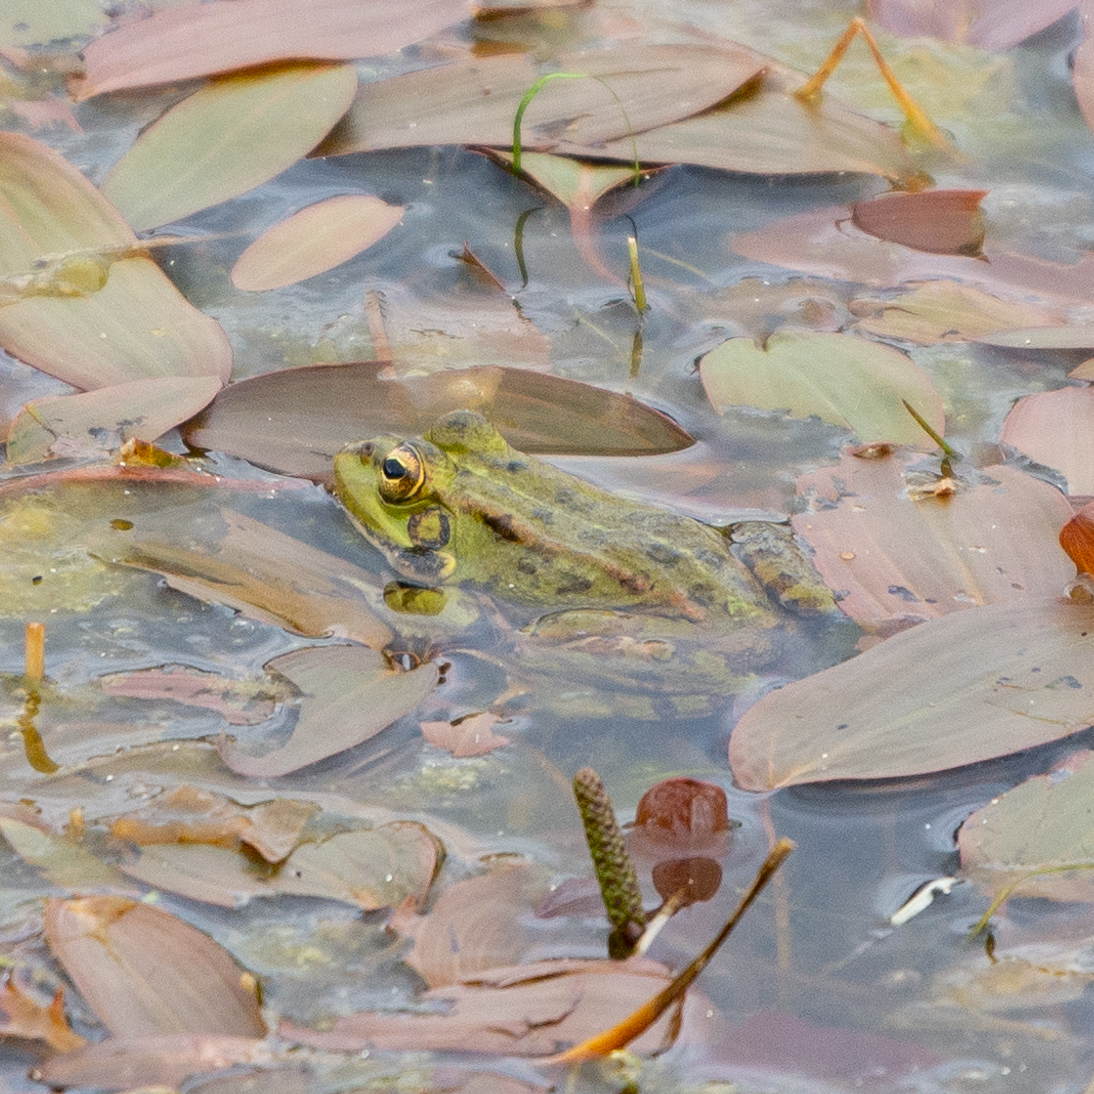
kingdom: Animalia
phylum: Chordata
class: Amphibia
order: Anura
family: Ranidae
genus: Pelophylax
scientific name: Pelophylax perezi
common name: Perez's frog
